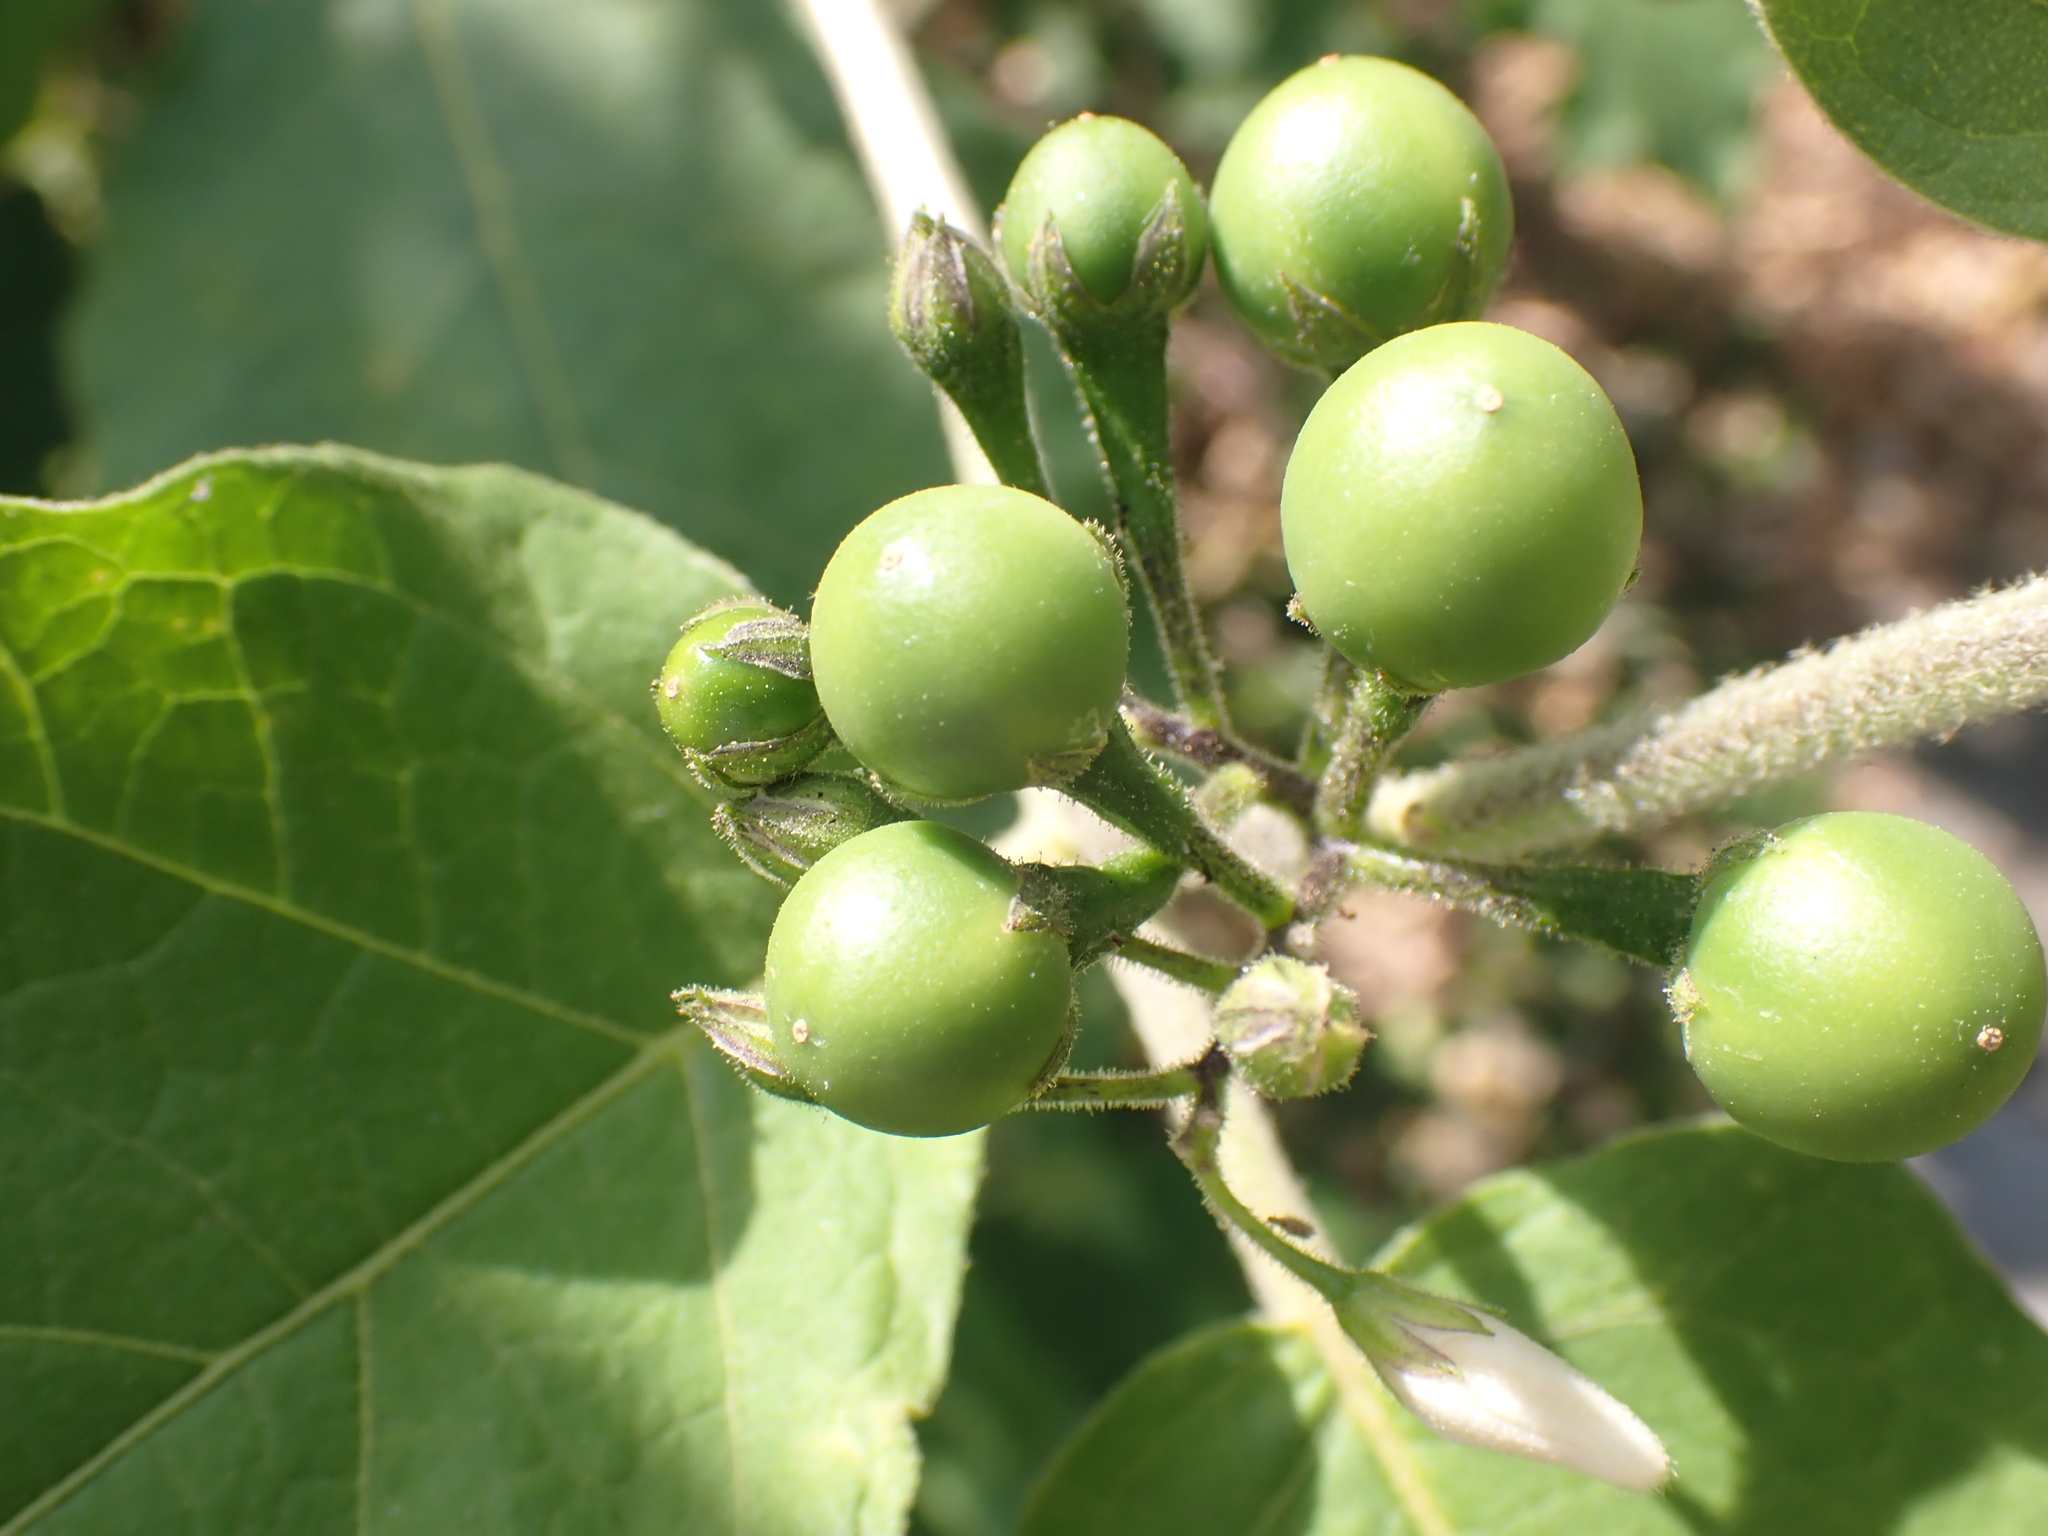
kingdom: Plantae
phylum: Tracheophyta
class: Magnoliopsida
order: Solanales
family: Solanaceae
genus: Solanum
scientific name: Solanum torvum
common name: Turkey berry
